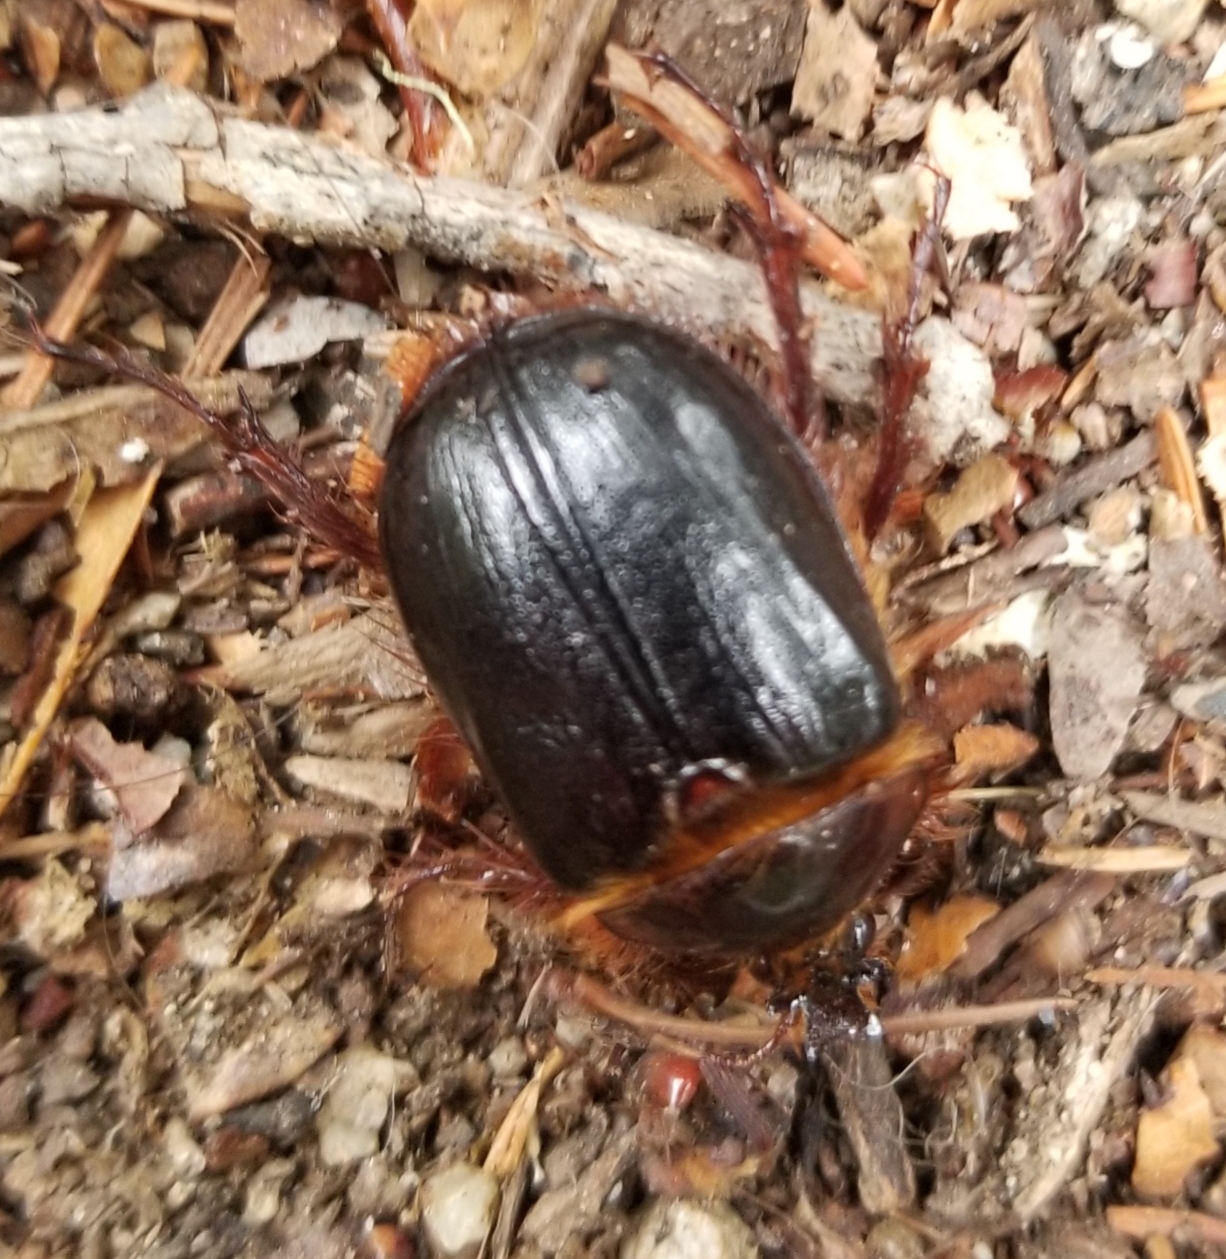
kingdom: Animalia
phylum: Arthropoda
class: Insecta
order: Coleoptera
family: Pleocomidae
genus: Pleocoma
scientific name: Pleocoma behrensi
